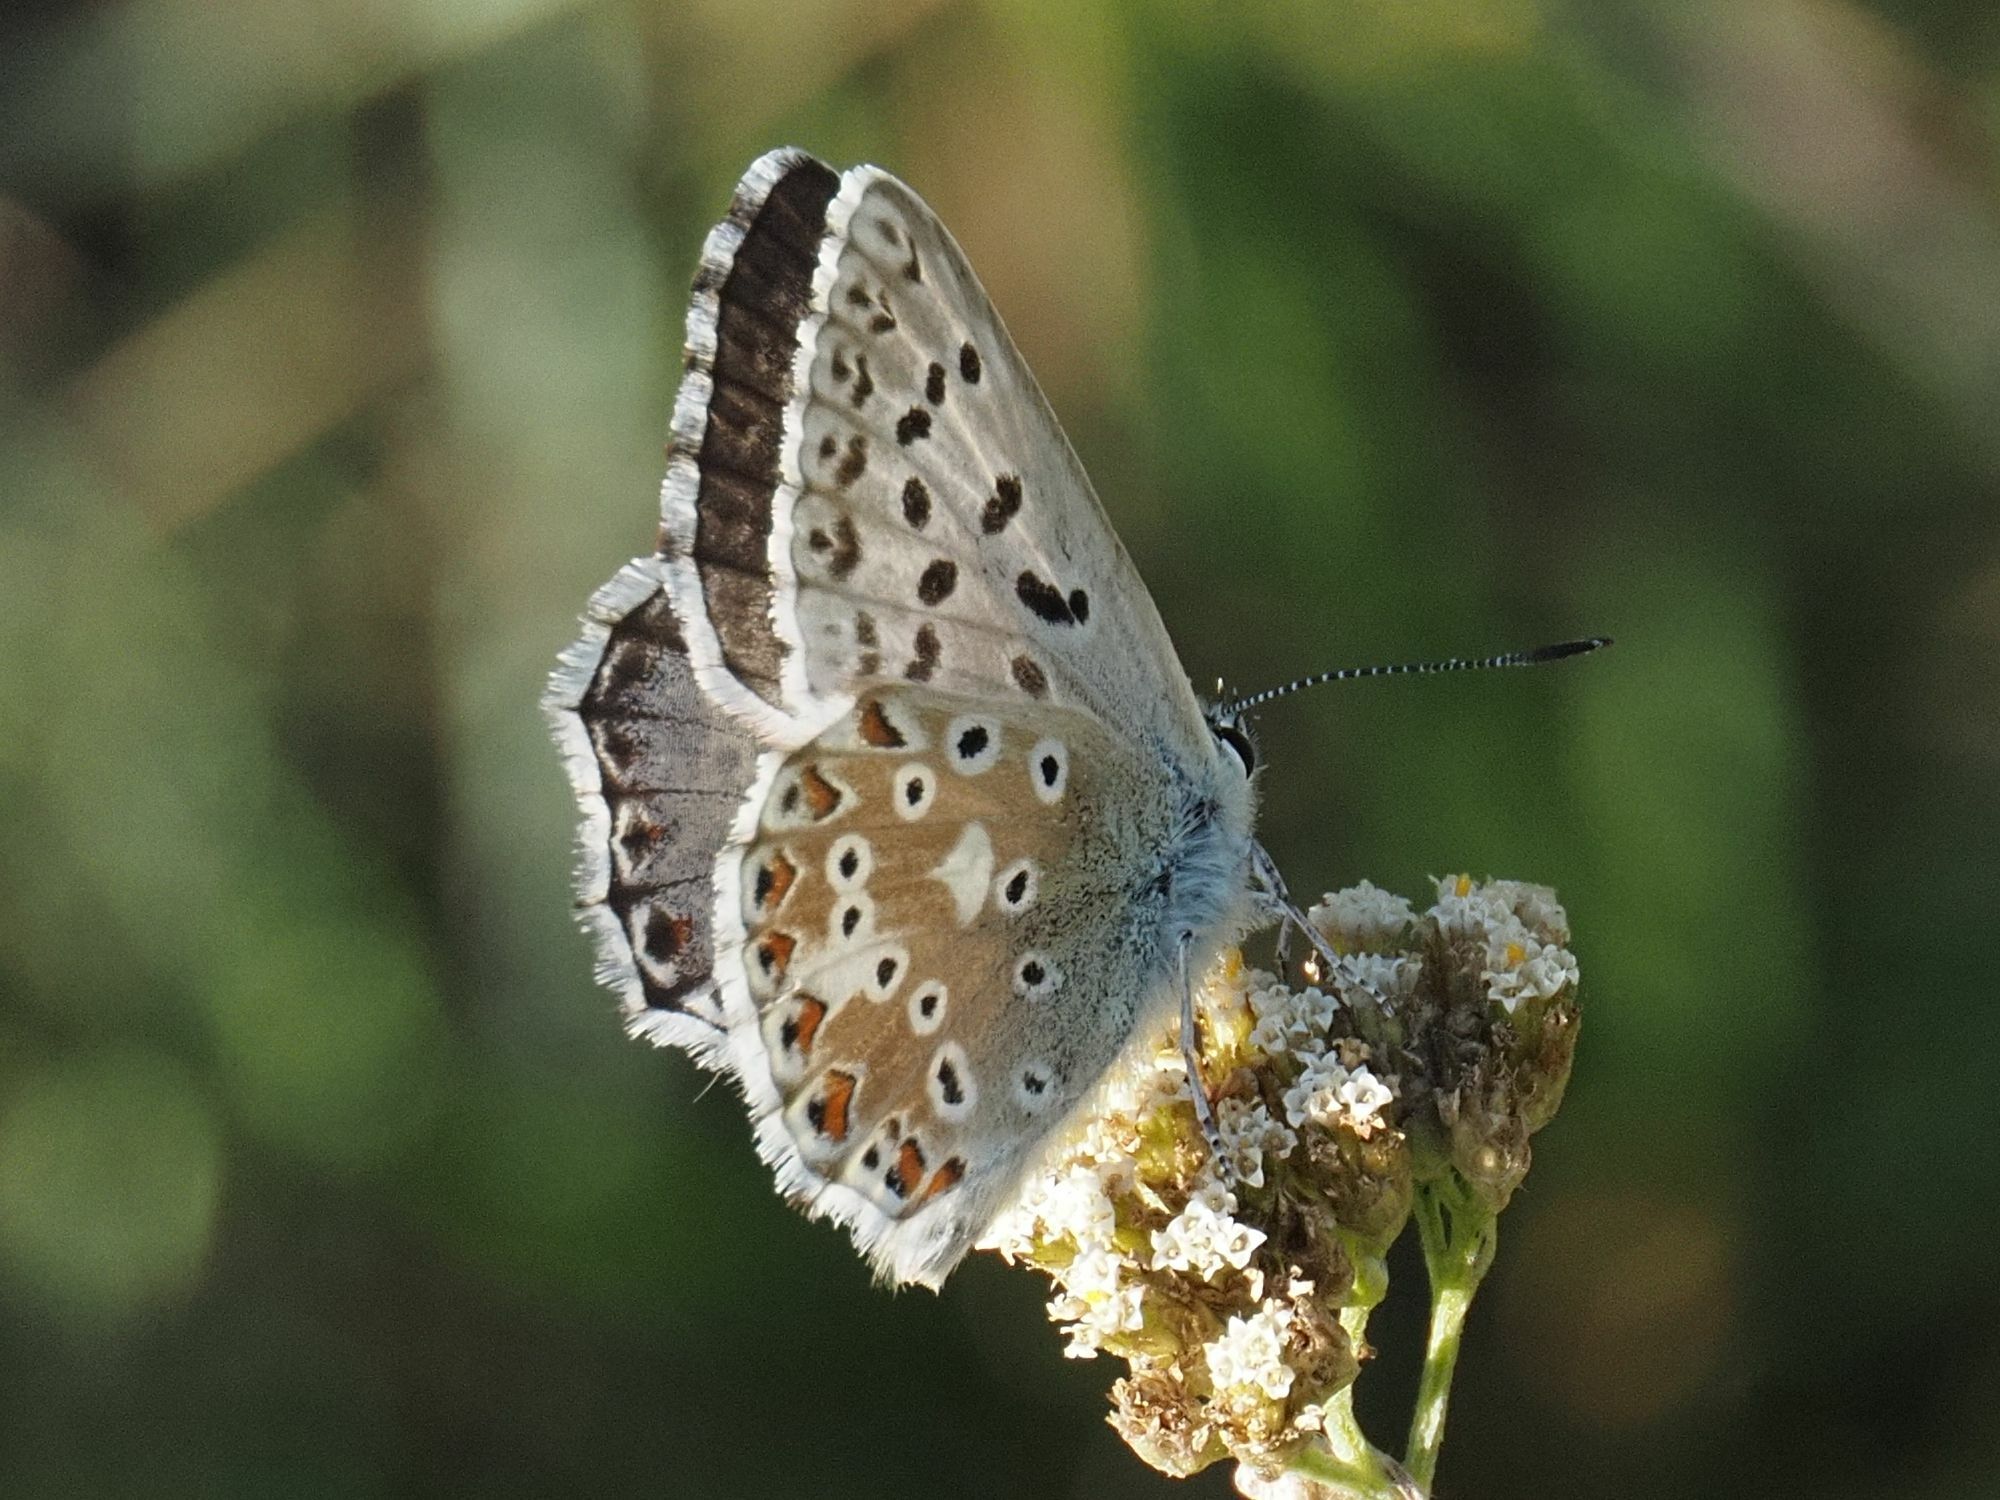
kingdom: Animalia
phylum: Arthropoda
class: Insecta
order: Lepidoptera
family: Lycaenidae
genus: Lysandra
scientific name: Lysandra coridon
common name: Chalkhill blue
